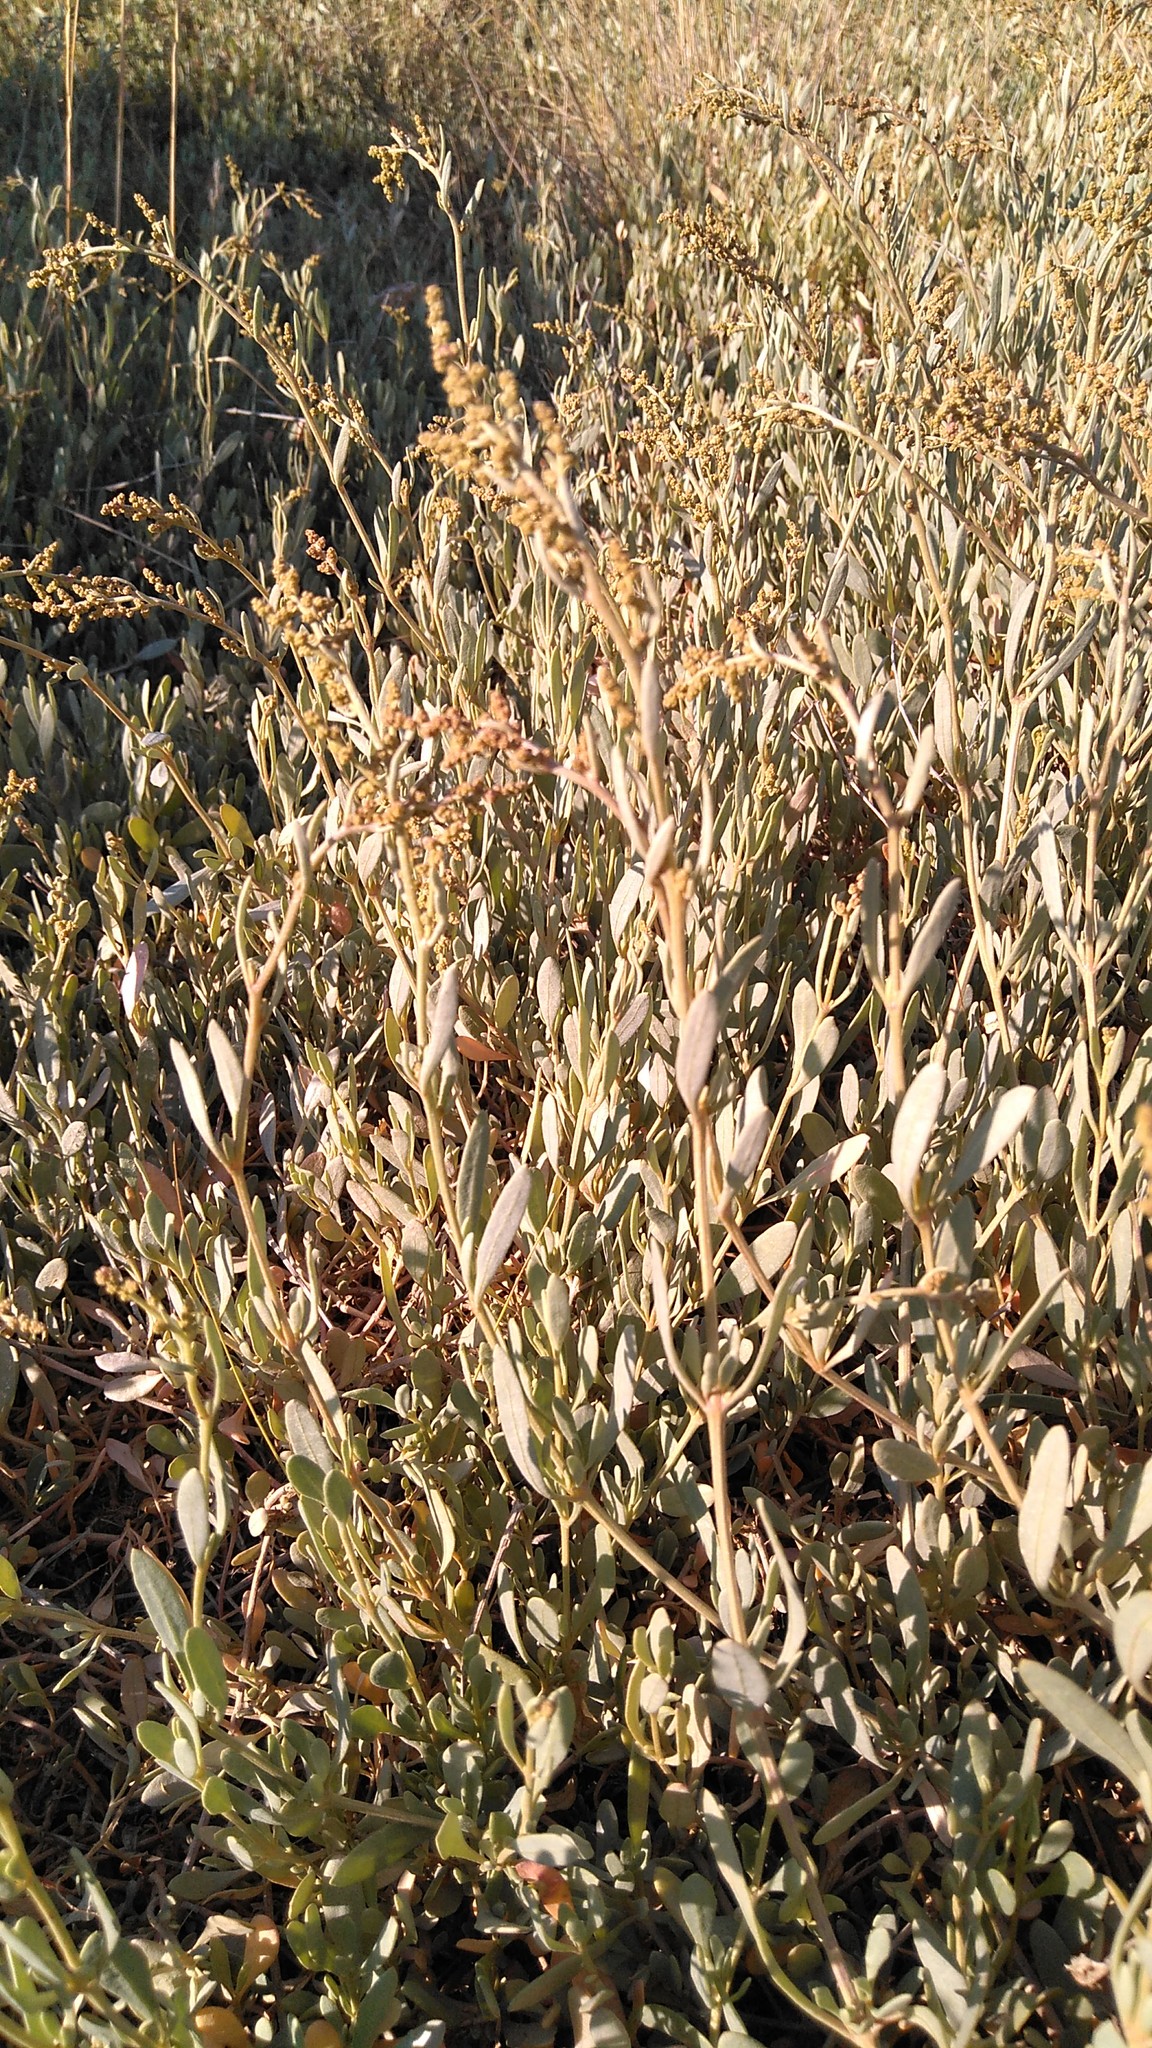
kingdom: Plantae
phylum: Tracheophyta
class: Magnoliopsida
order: Caryophyllales
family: Amaranthaceae
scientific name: Amaranthaceae
